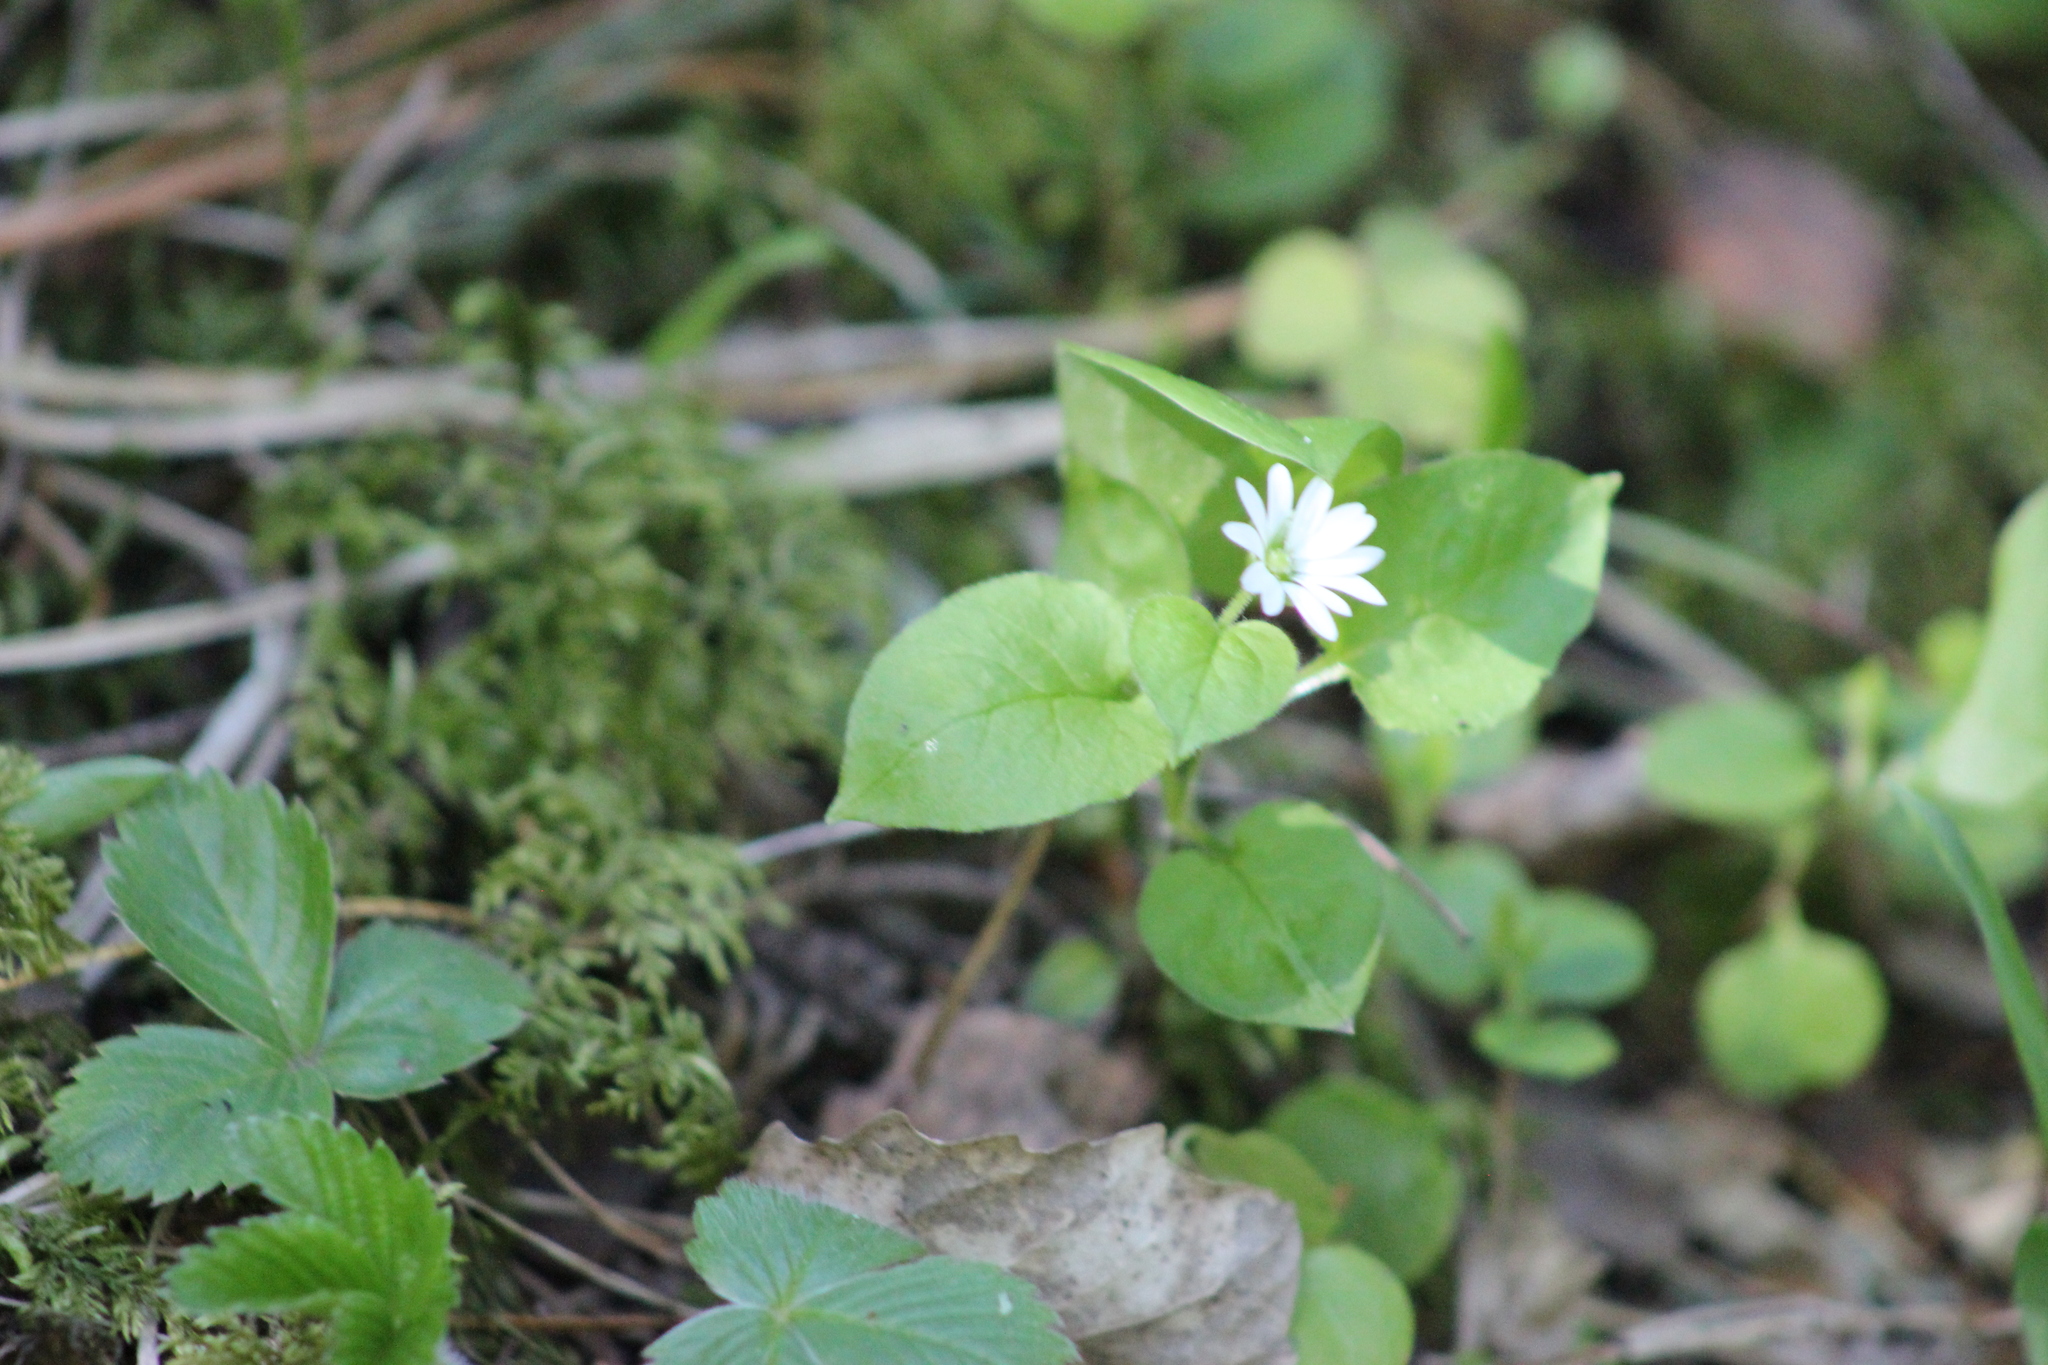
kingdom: Plantae
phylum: Tracheophyta
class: Magnoliopsida
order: Caryophyllales
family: Caryophyllaceae
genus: Stellaria
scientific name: Stellaria bungeana
